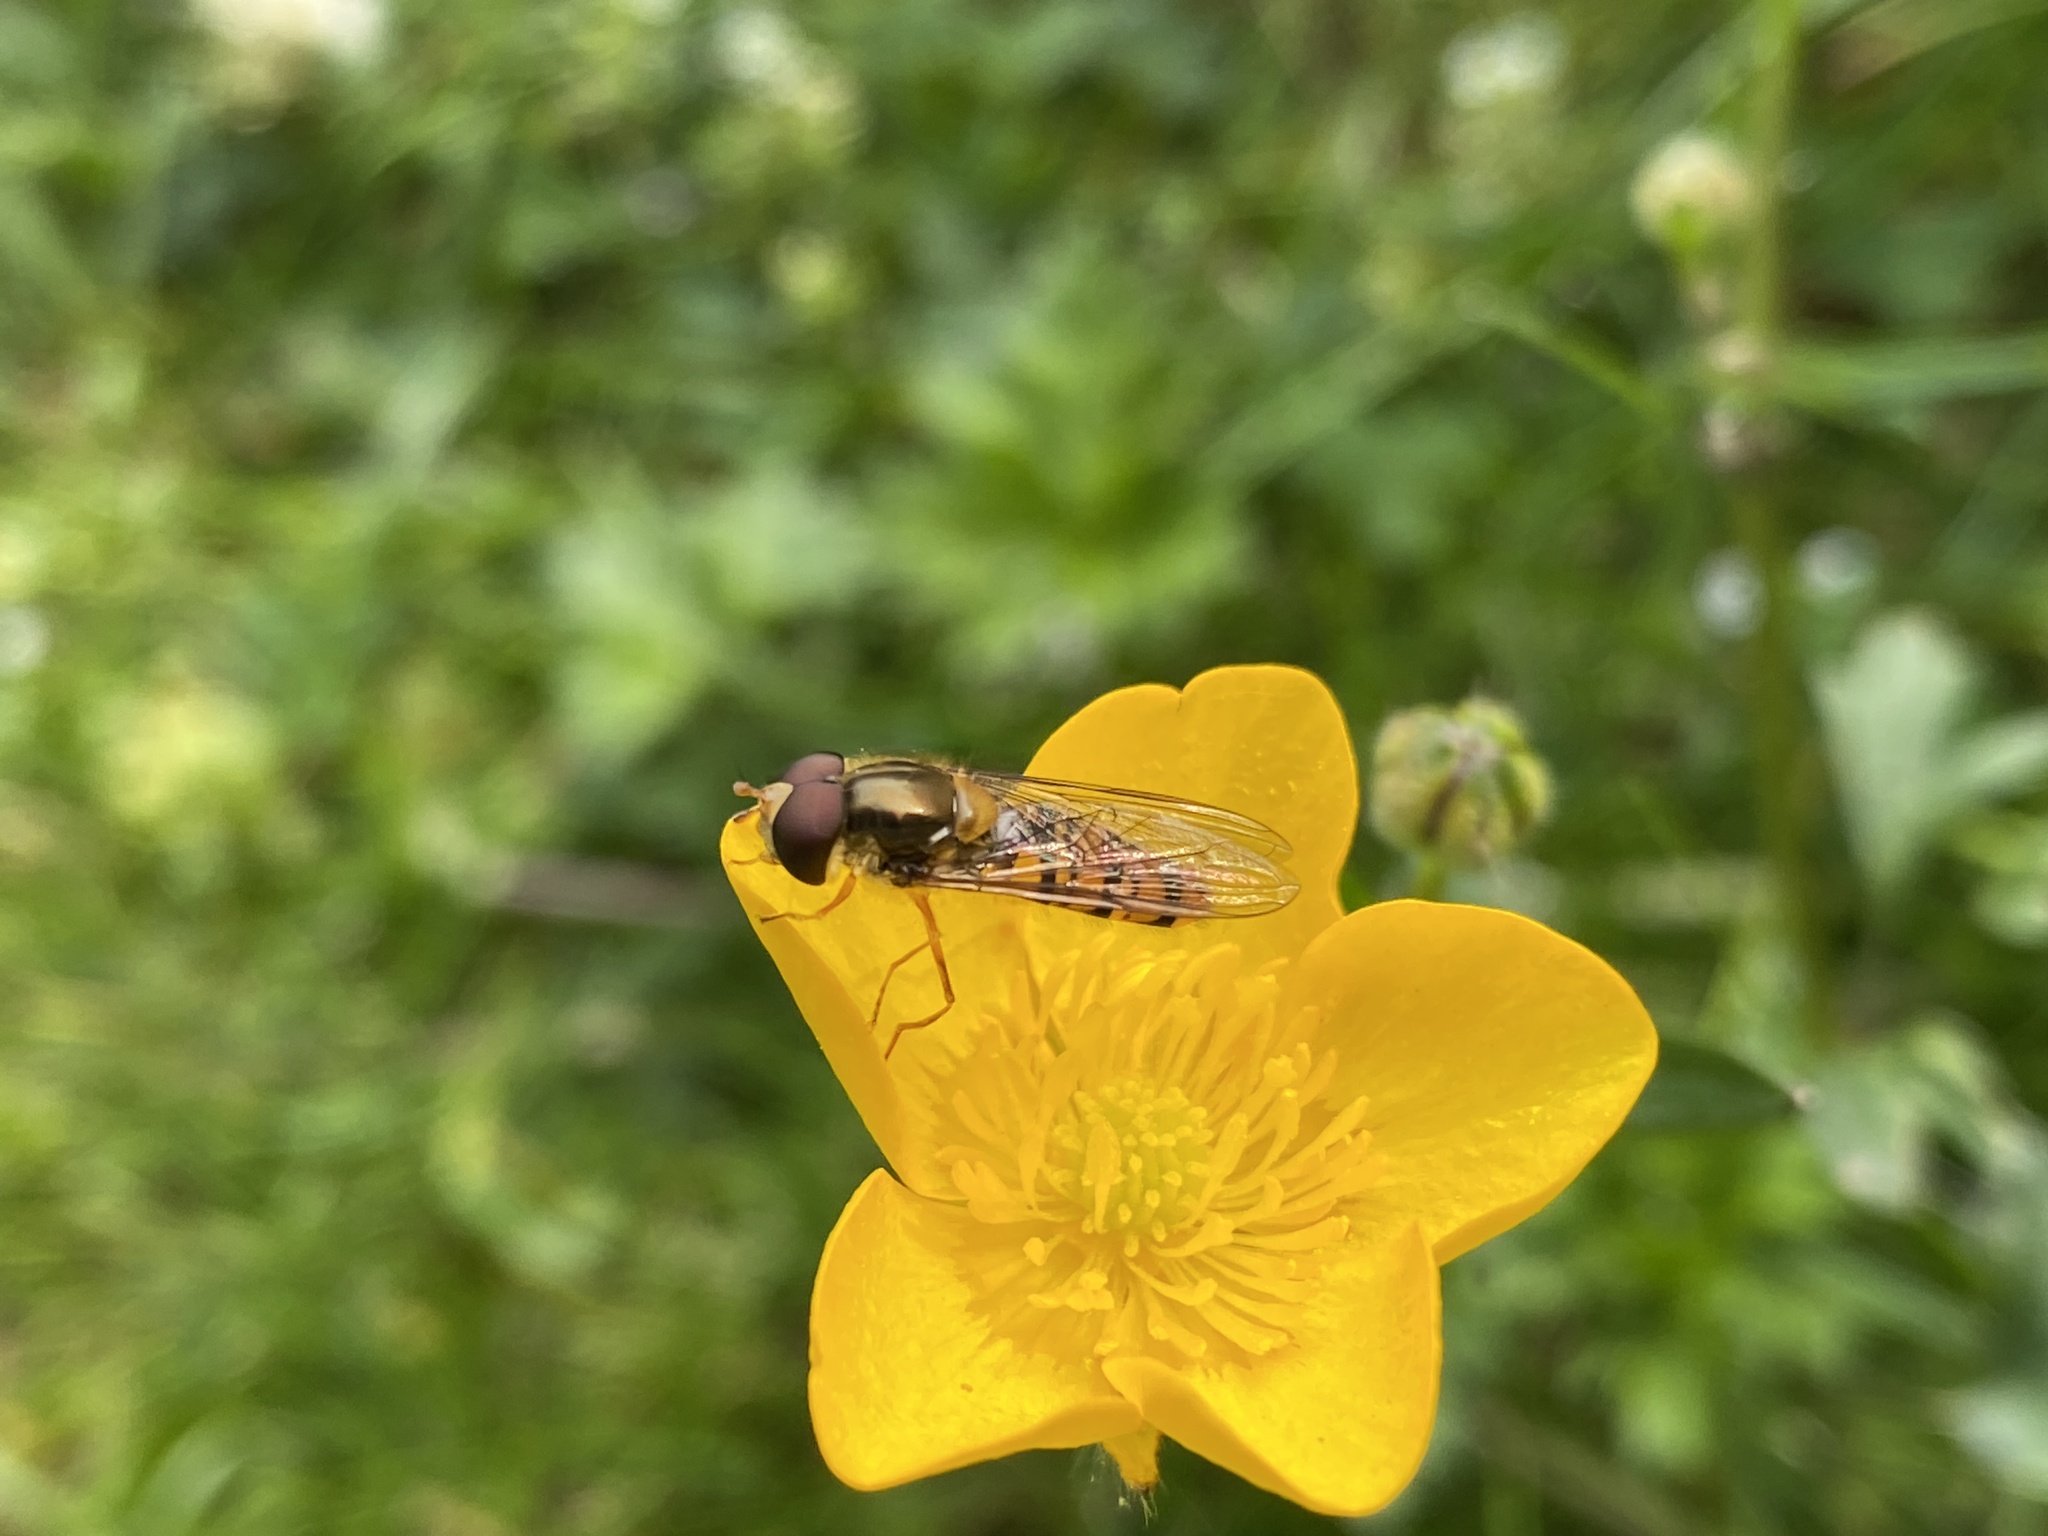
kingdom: Animalia
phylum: Arthropoda
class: Insecta
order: Diptera
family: Syrphidae
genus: Episyrphus
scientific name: Episyrphus balteatus
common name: Marmalade hoverfly
